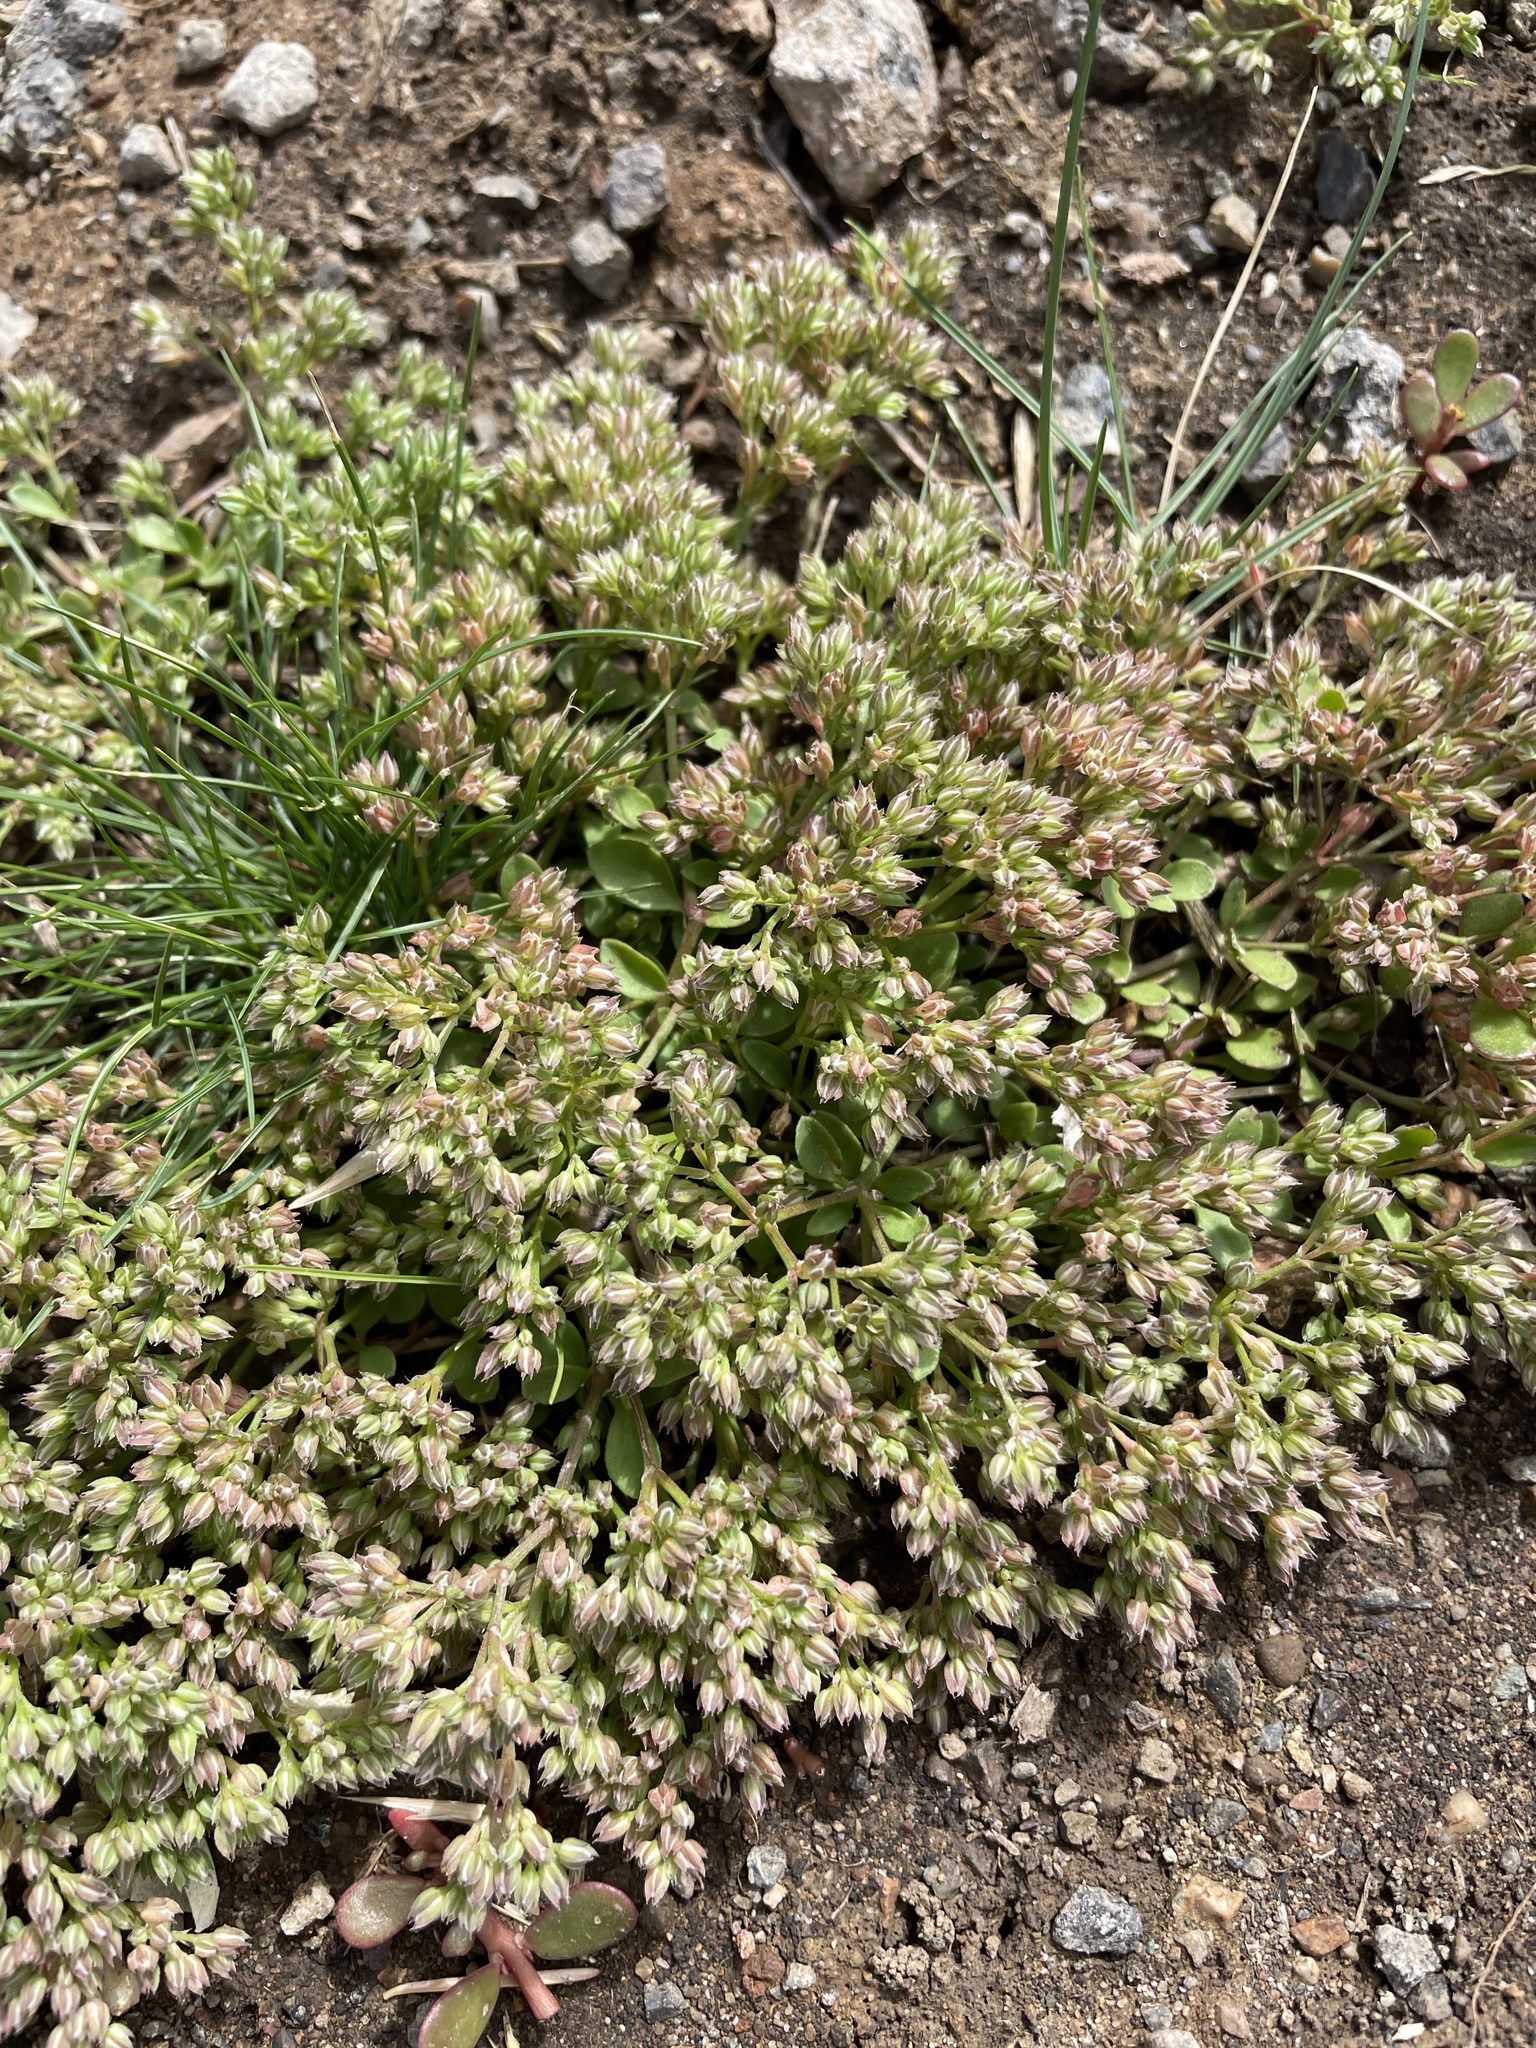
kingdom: Plantae
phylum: Tracheophyta
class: Magnoliopsida
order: Caryophyllales
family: Caryophyllaceae
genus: Polycarpon
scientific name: Polycarpon tetraphyllum
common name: Four-leaved all-seed
